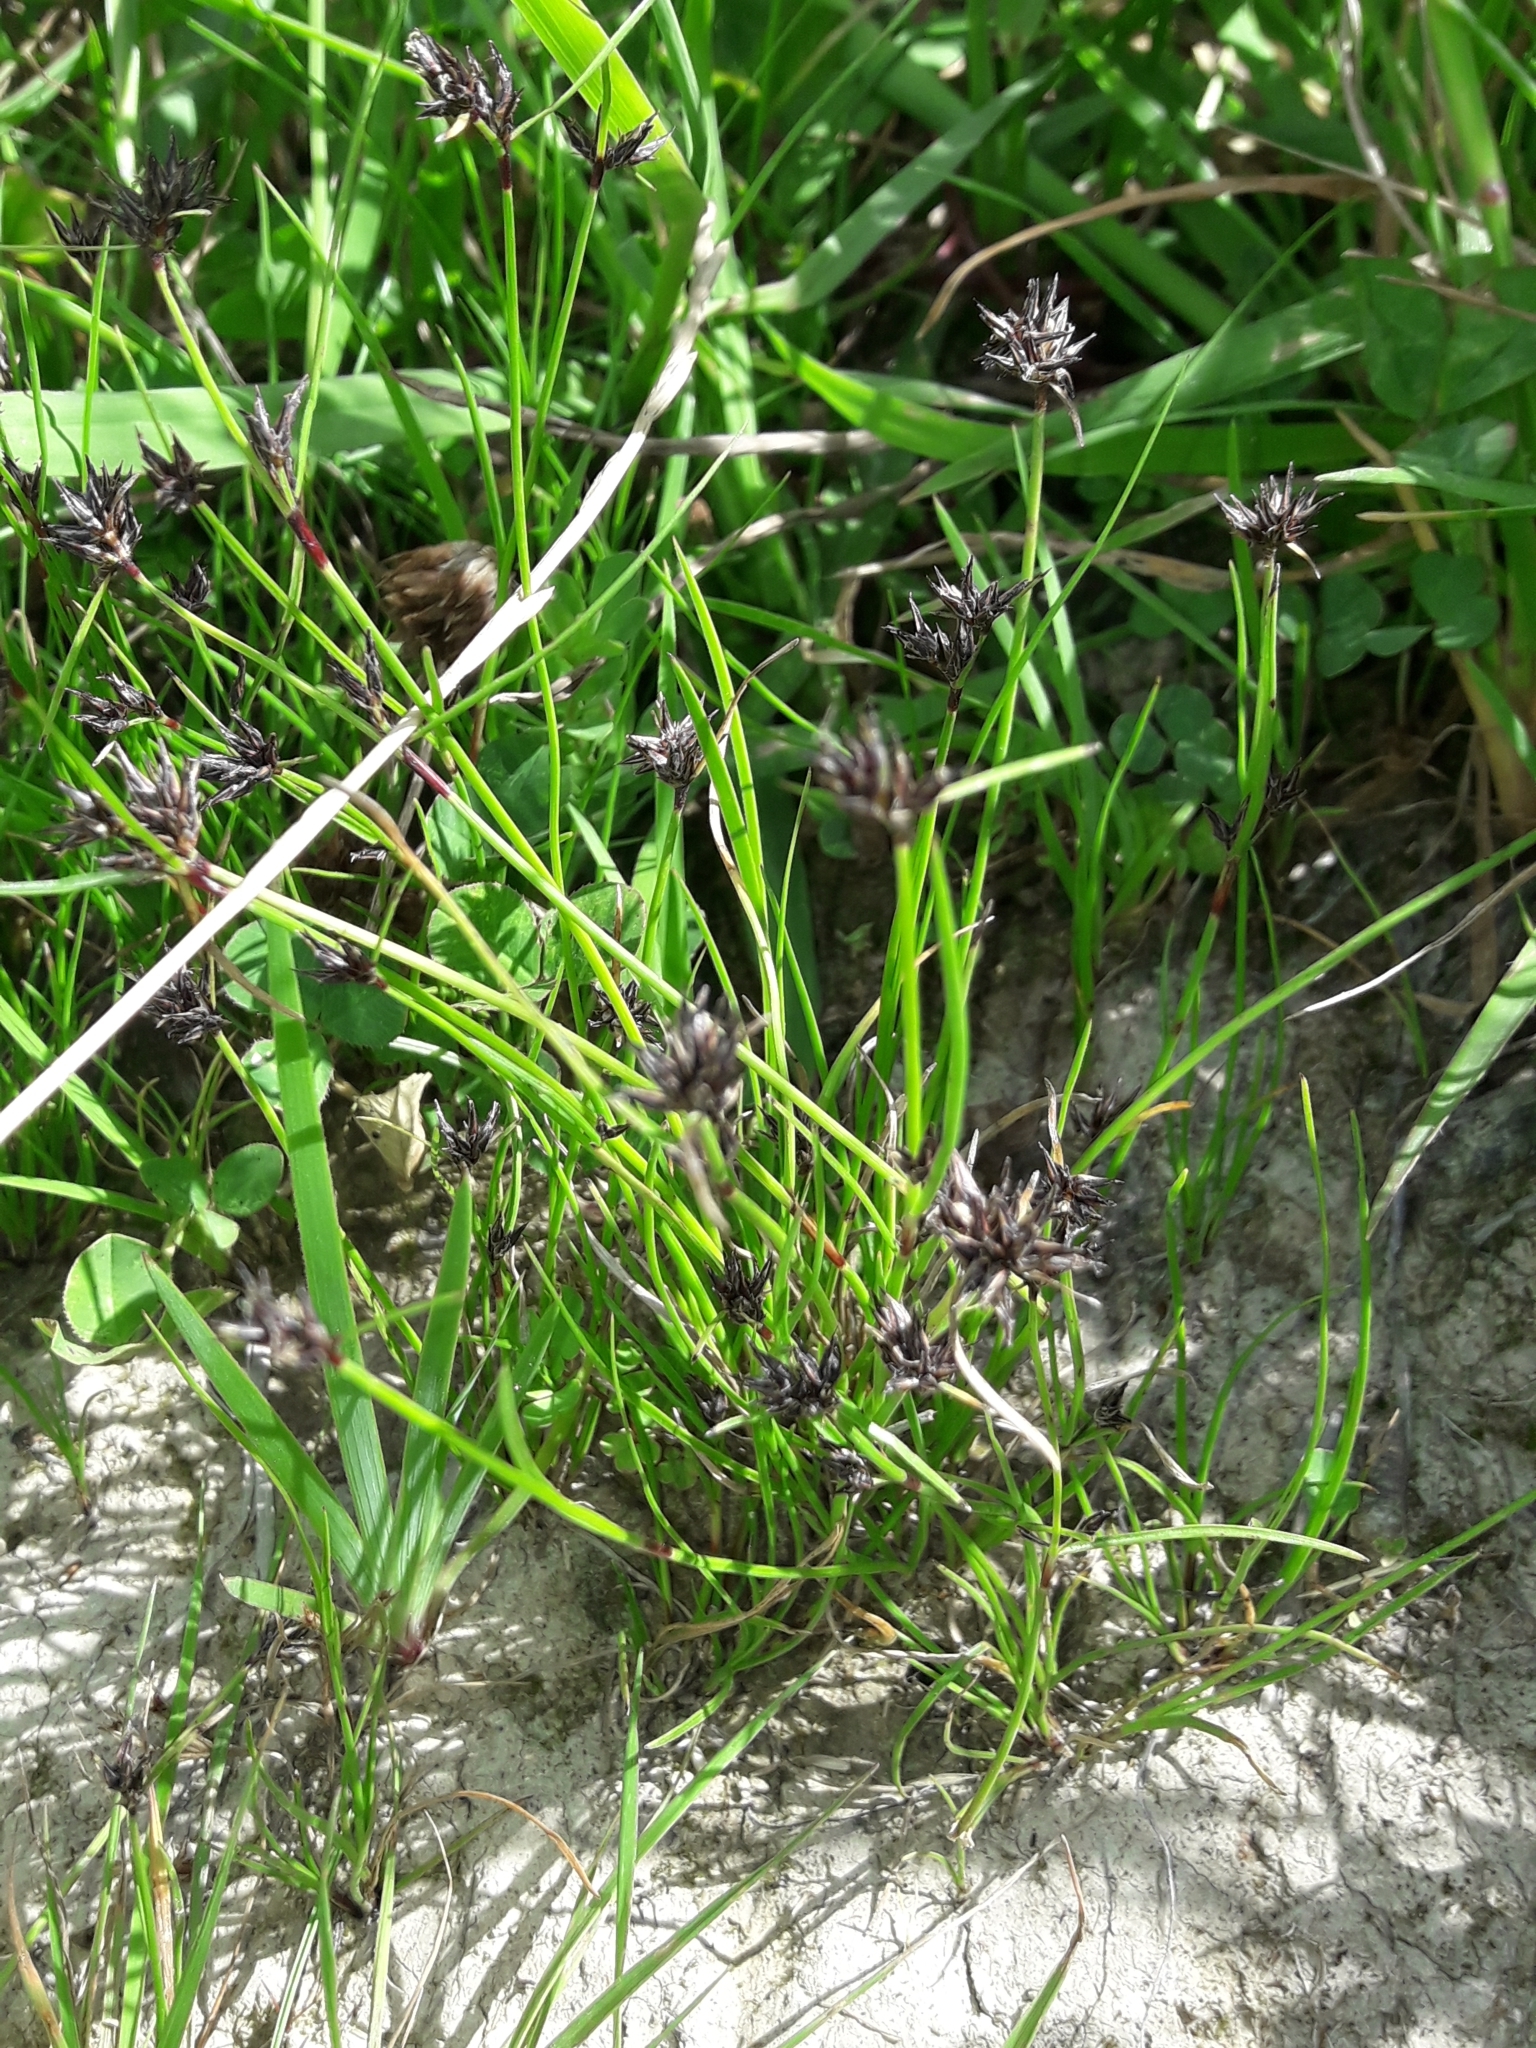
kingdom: Plantae
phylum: Tracheophyta
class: Liliopsida
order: Poales
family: Cyperaceae
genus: Schoenus
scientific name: Schoenus apogon
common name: Smooth bogrush
